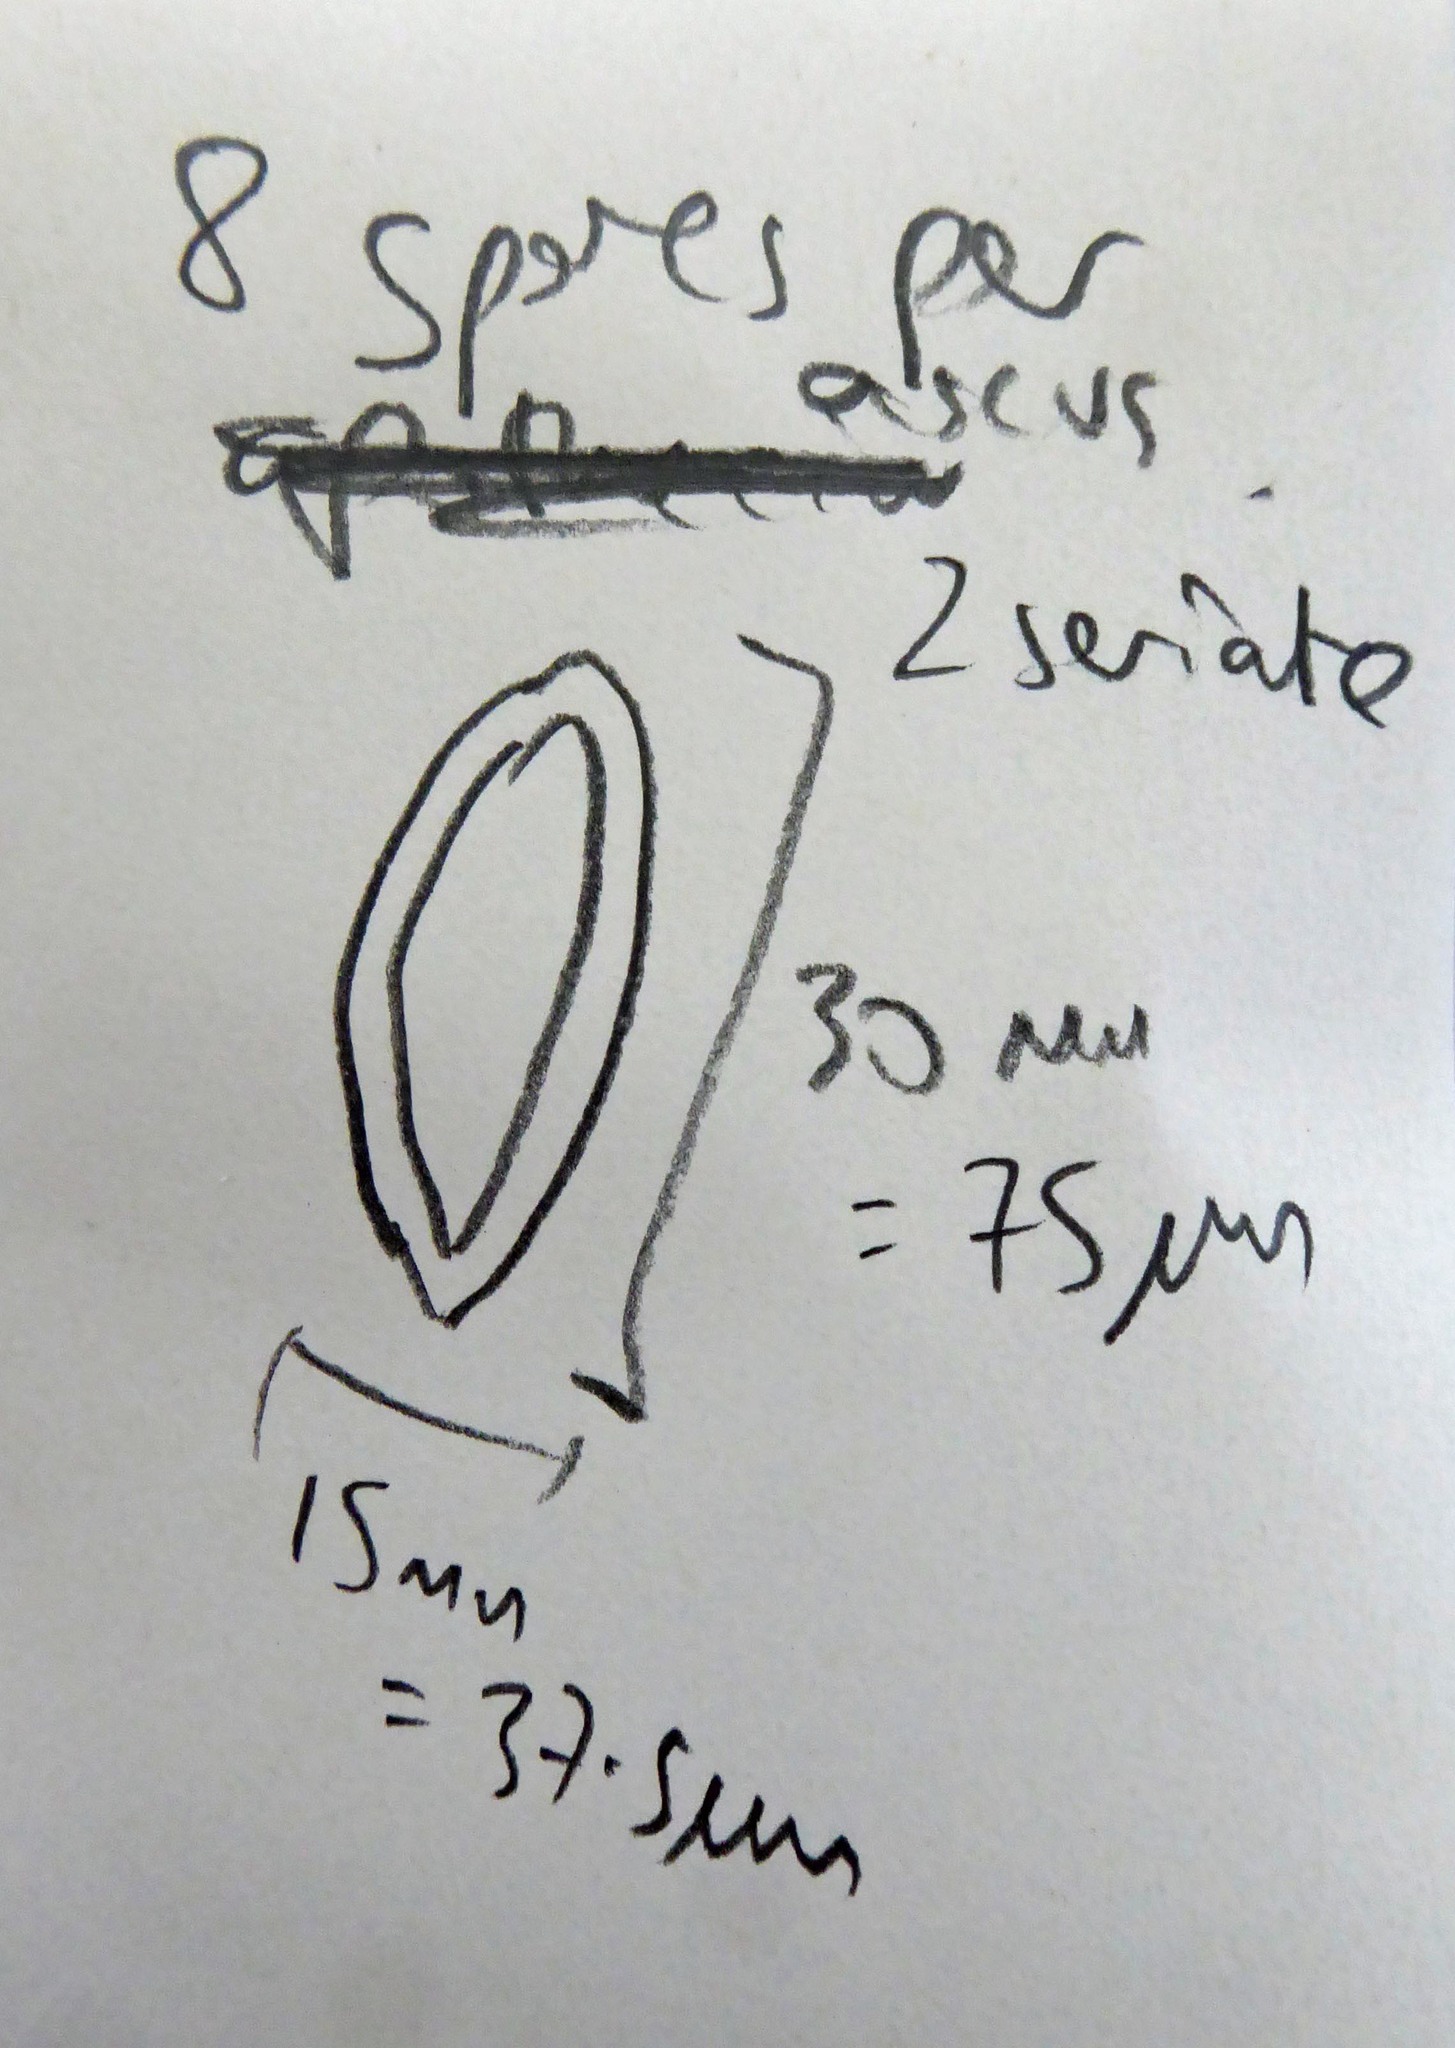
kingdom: Fungi
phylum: Ascomycota
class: Lecanoromycetes
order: Pertusariales
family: Pertusariaceae
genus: Pertusaria
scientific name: Pertusaria leucoplaca
